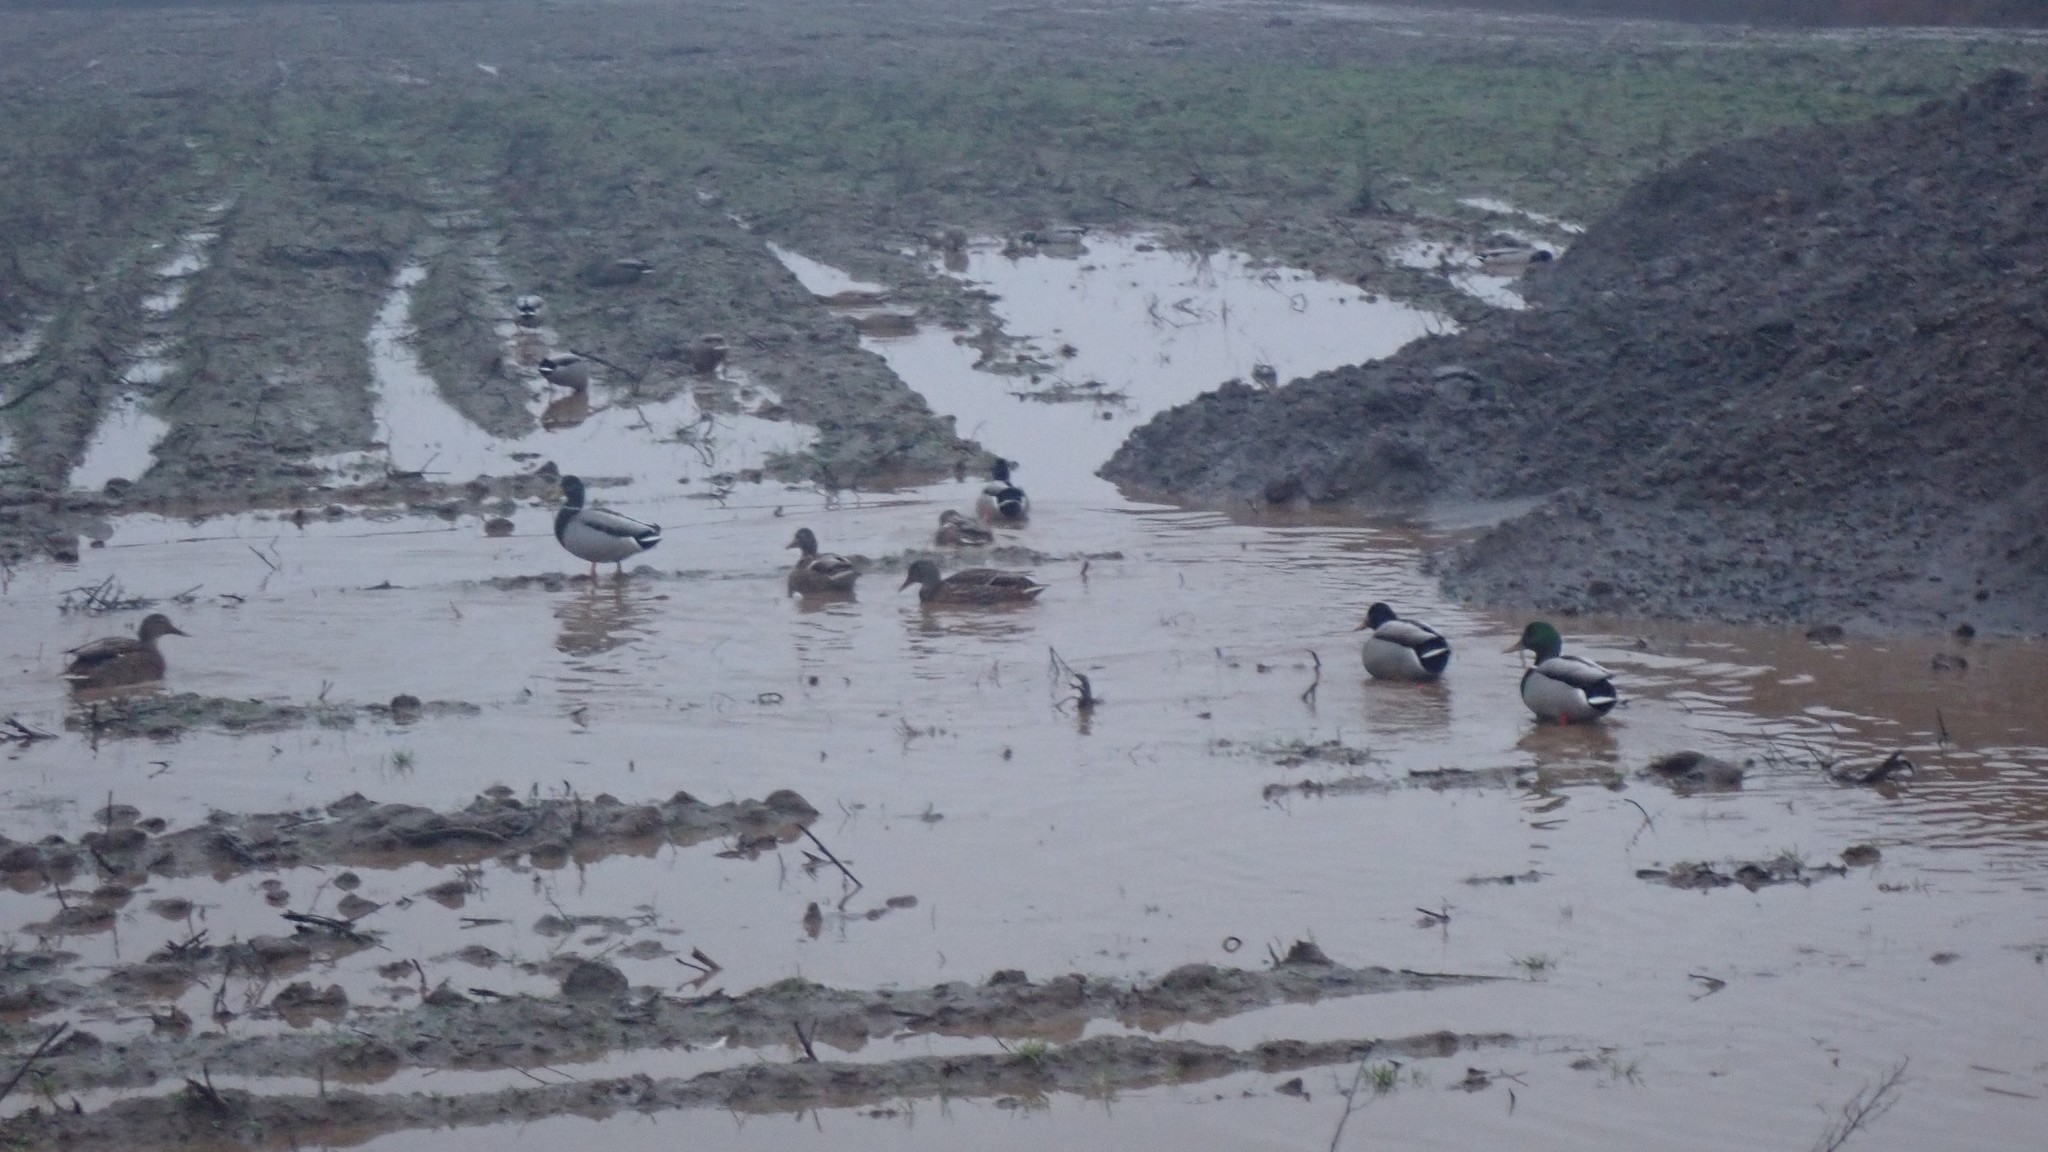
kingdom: Animalia
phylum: Chordata
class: Aves
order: Anseriformes
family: Anatidae
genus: Anas
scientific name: Anas platyrhynchos
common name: Mallard
